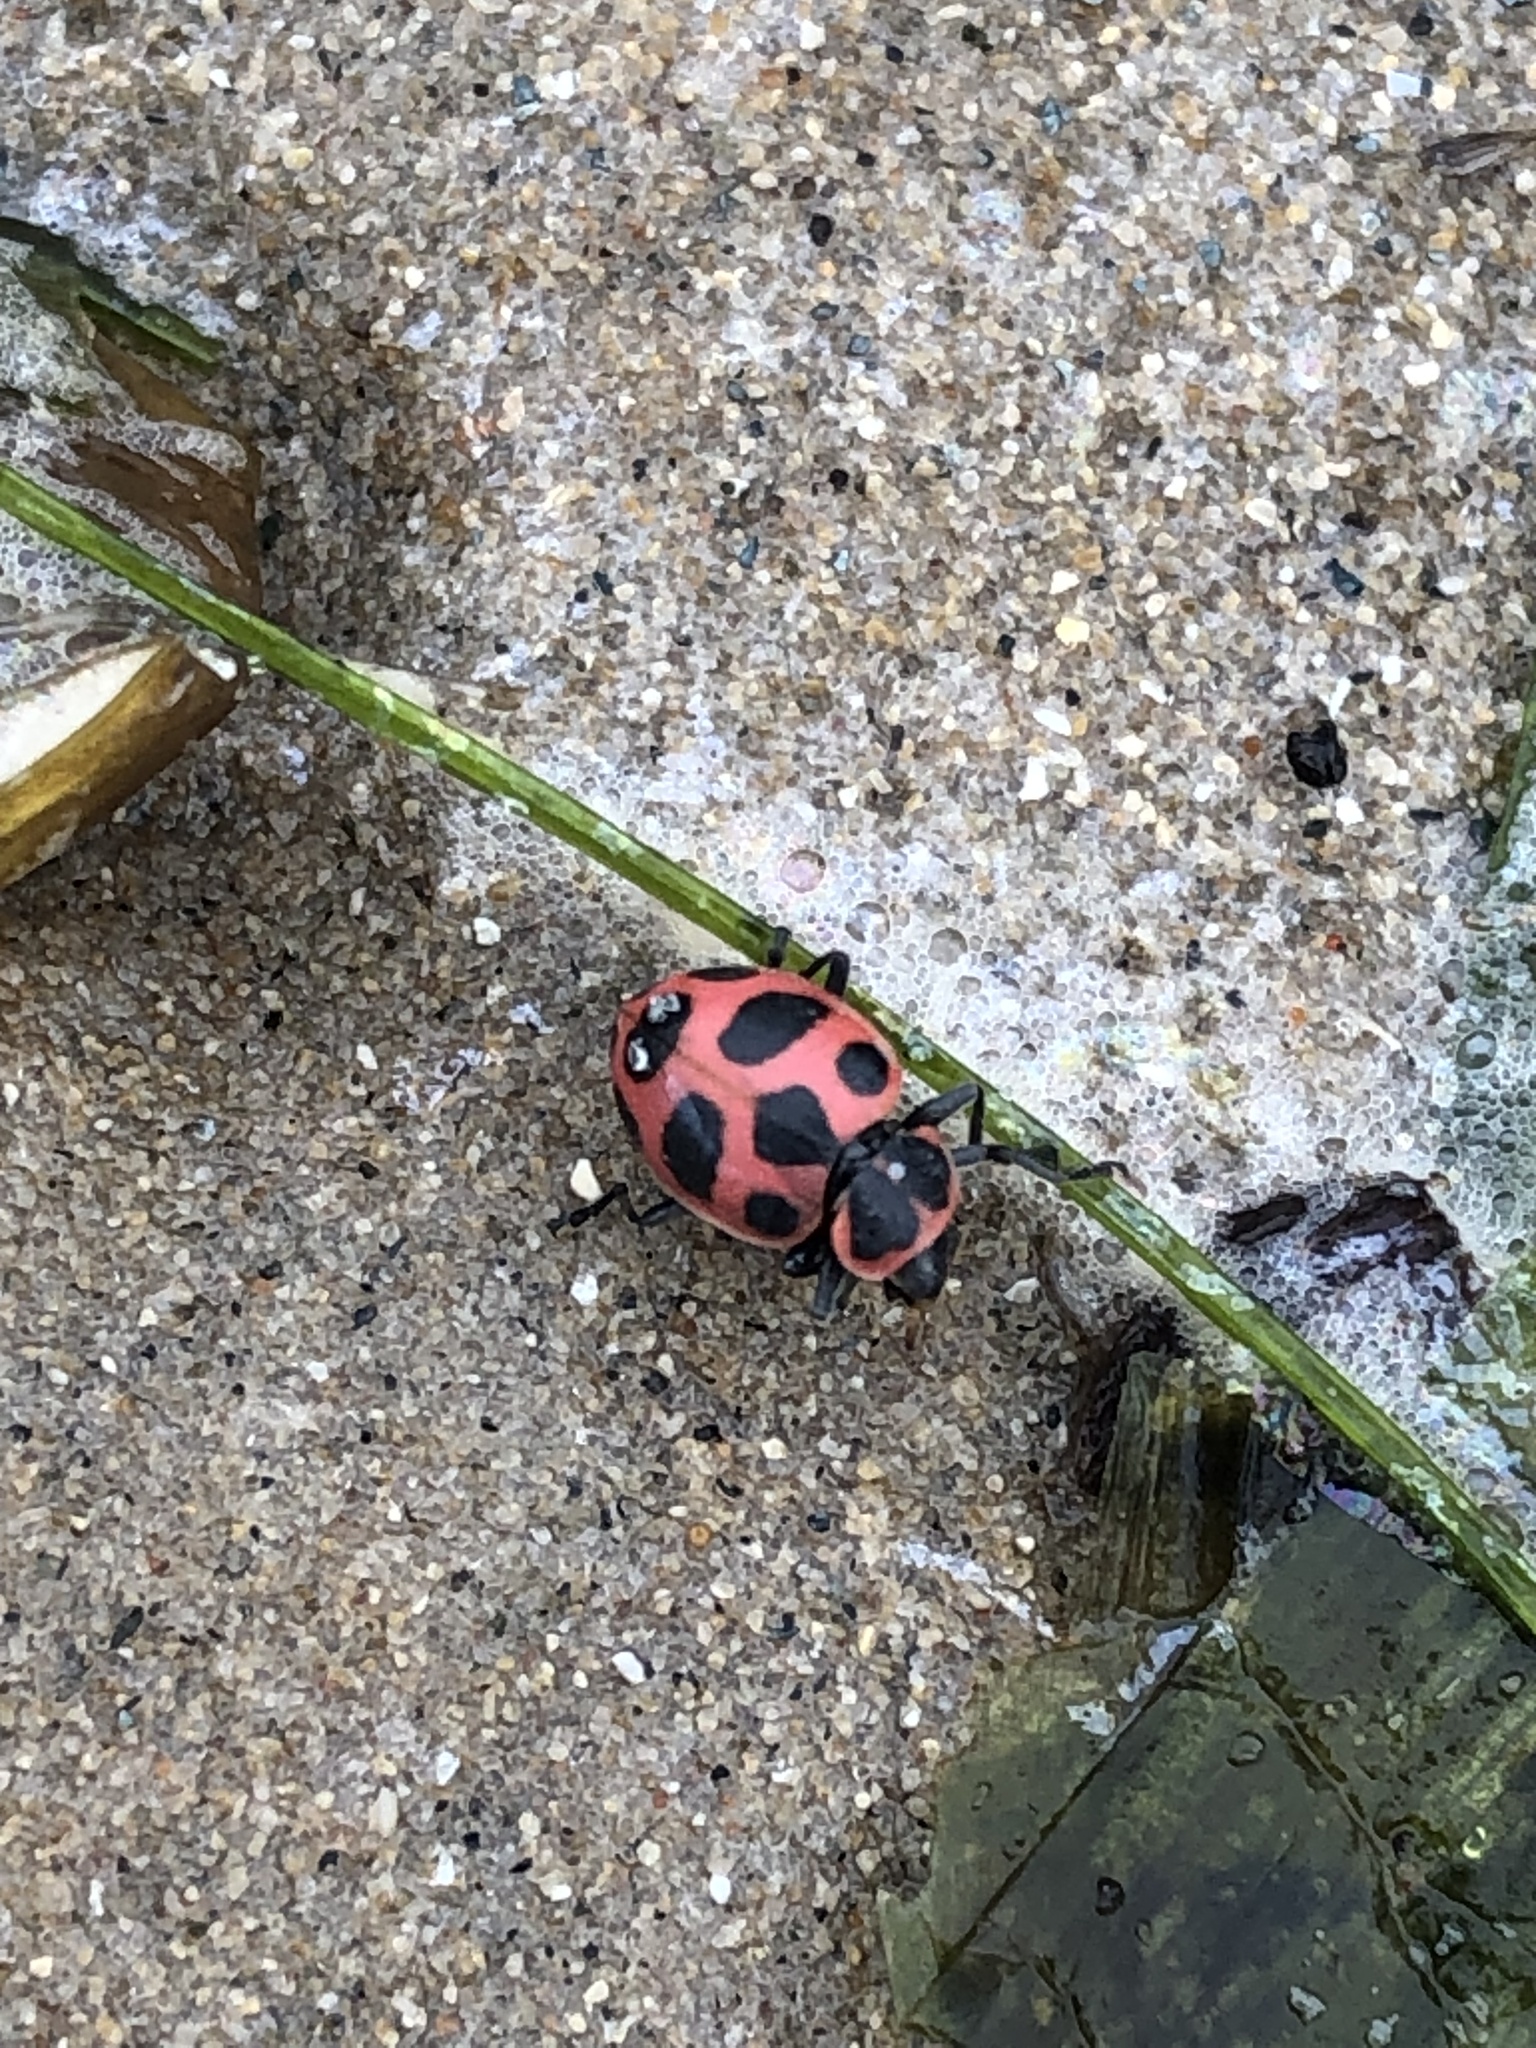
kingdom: Animalia
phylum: Arthropoda
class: Insecta
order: Coleoptera
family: Coccinellidae
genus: Coleomegilla
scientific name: Coleomegilla maculata
